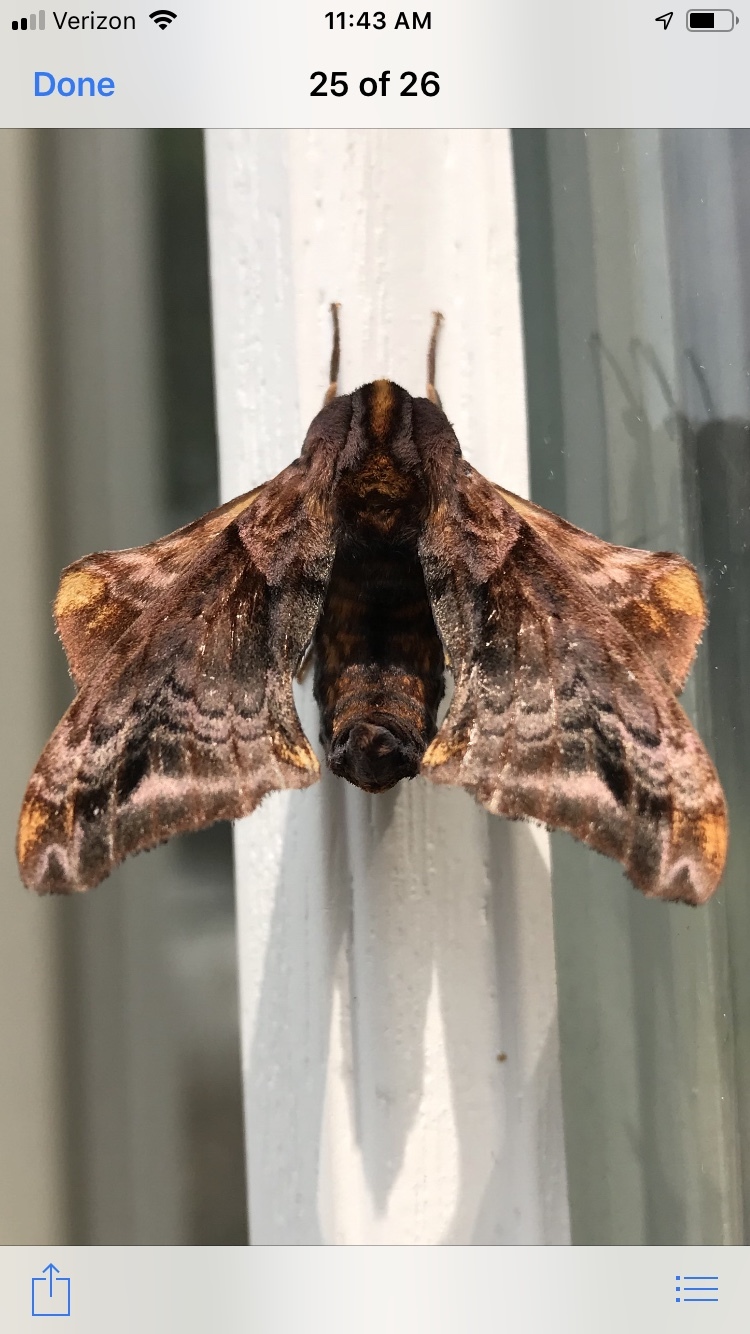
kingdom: Animalia
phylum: Arthropoda
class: Insecta
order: Lepidoptera
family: Sphingidae
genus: Paonias
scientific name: Paonias myops
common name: Small-eyed sphinx
